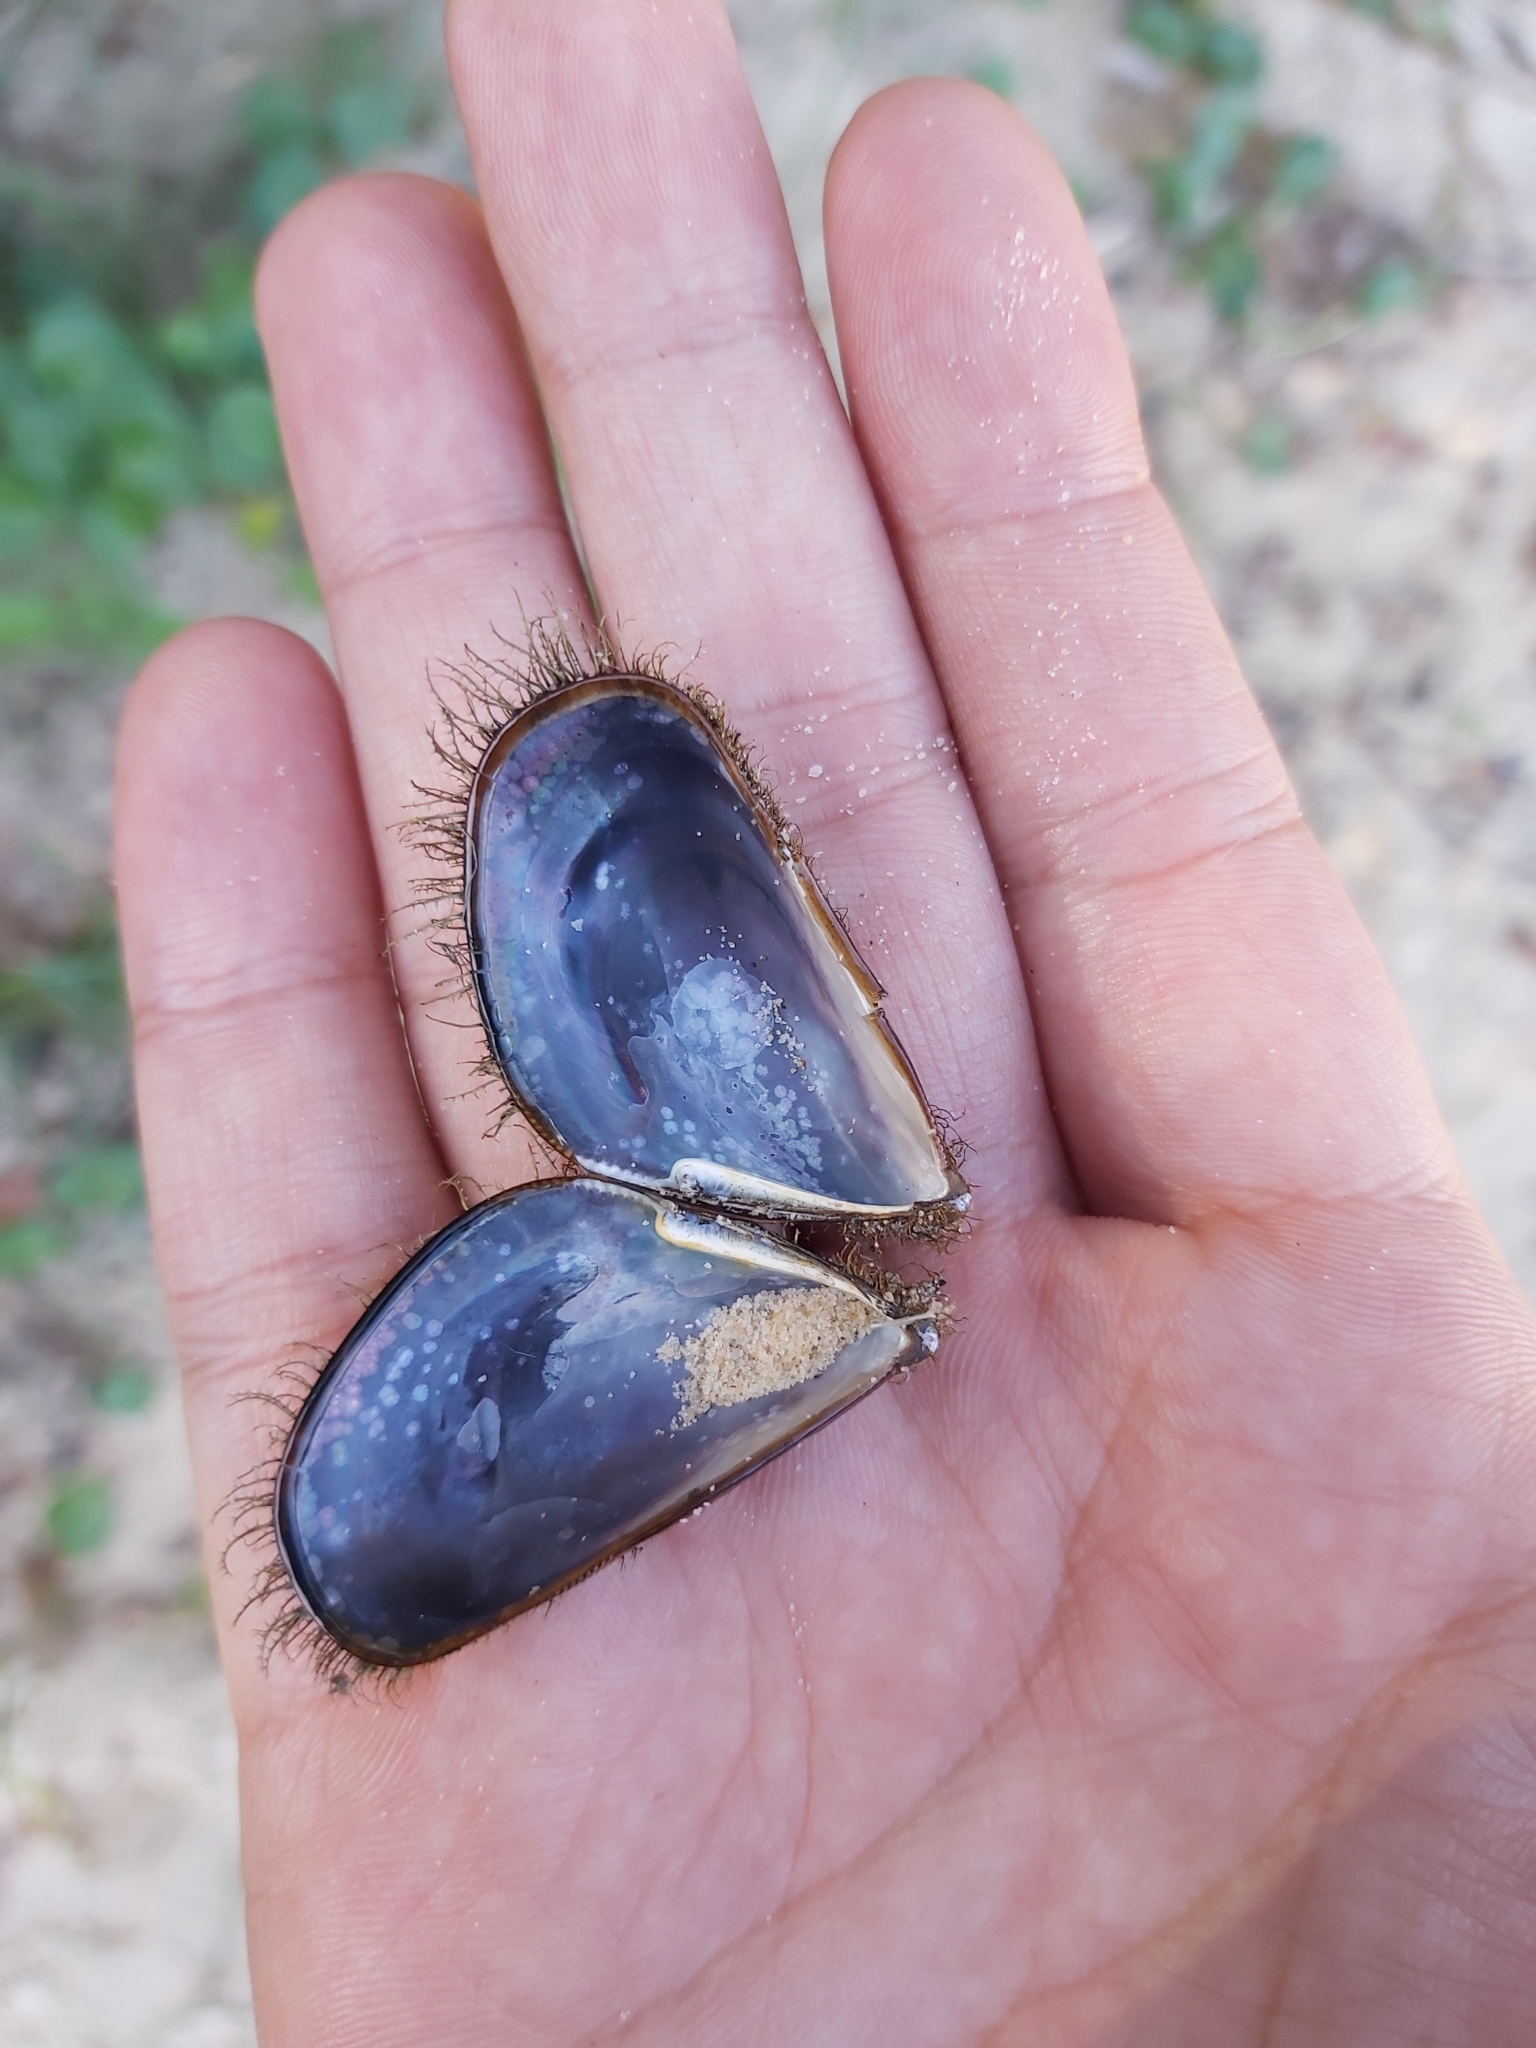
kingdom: Animalia
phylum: Mollusca
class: Bivalvia
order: Mytilida
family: Mytilidae
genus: Trichomya
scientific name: Trichomya hirsuta
